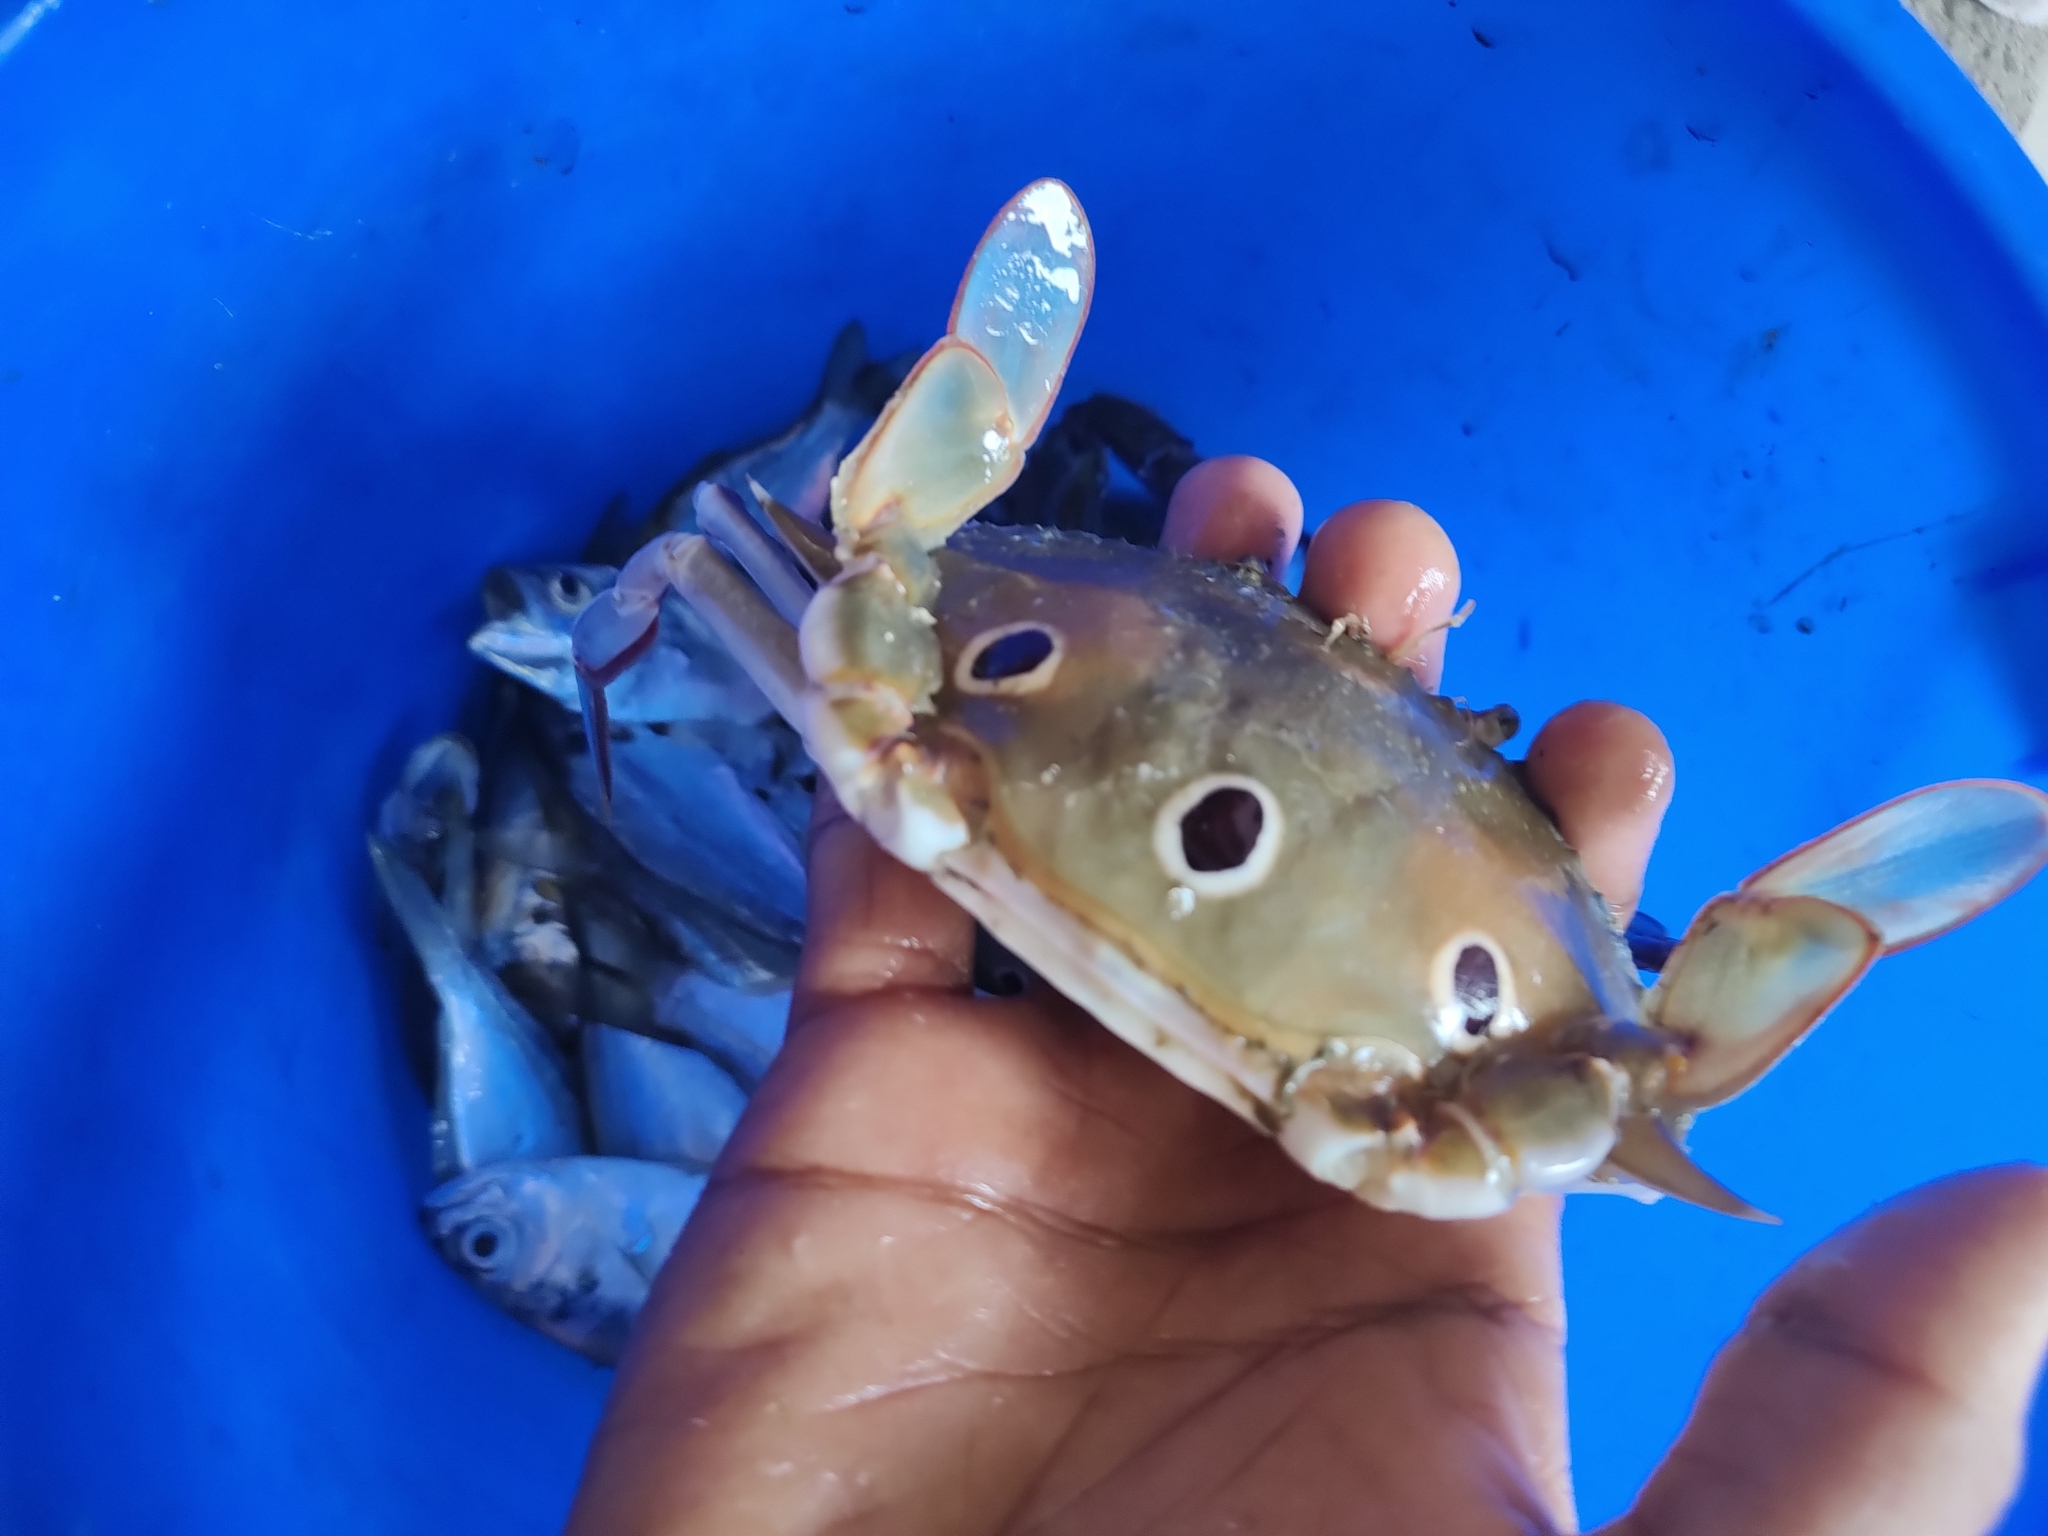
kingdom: Animalia
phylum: Arthropoda
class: Malacostraca
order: Decapoda
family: Portunidae
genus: Portunus
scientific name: Portunus sanguinolentus
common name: Blood-spotted swimming crab
